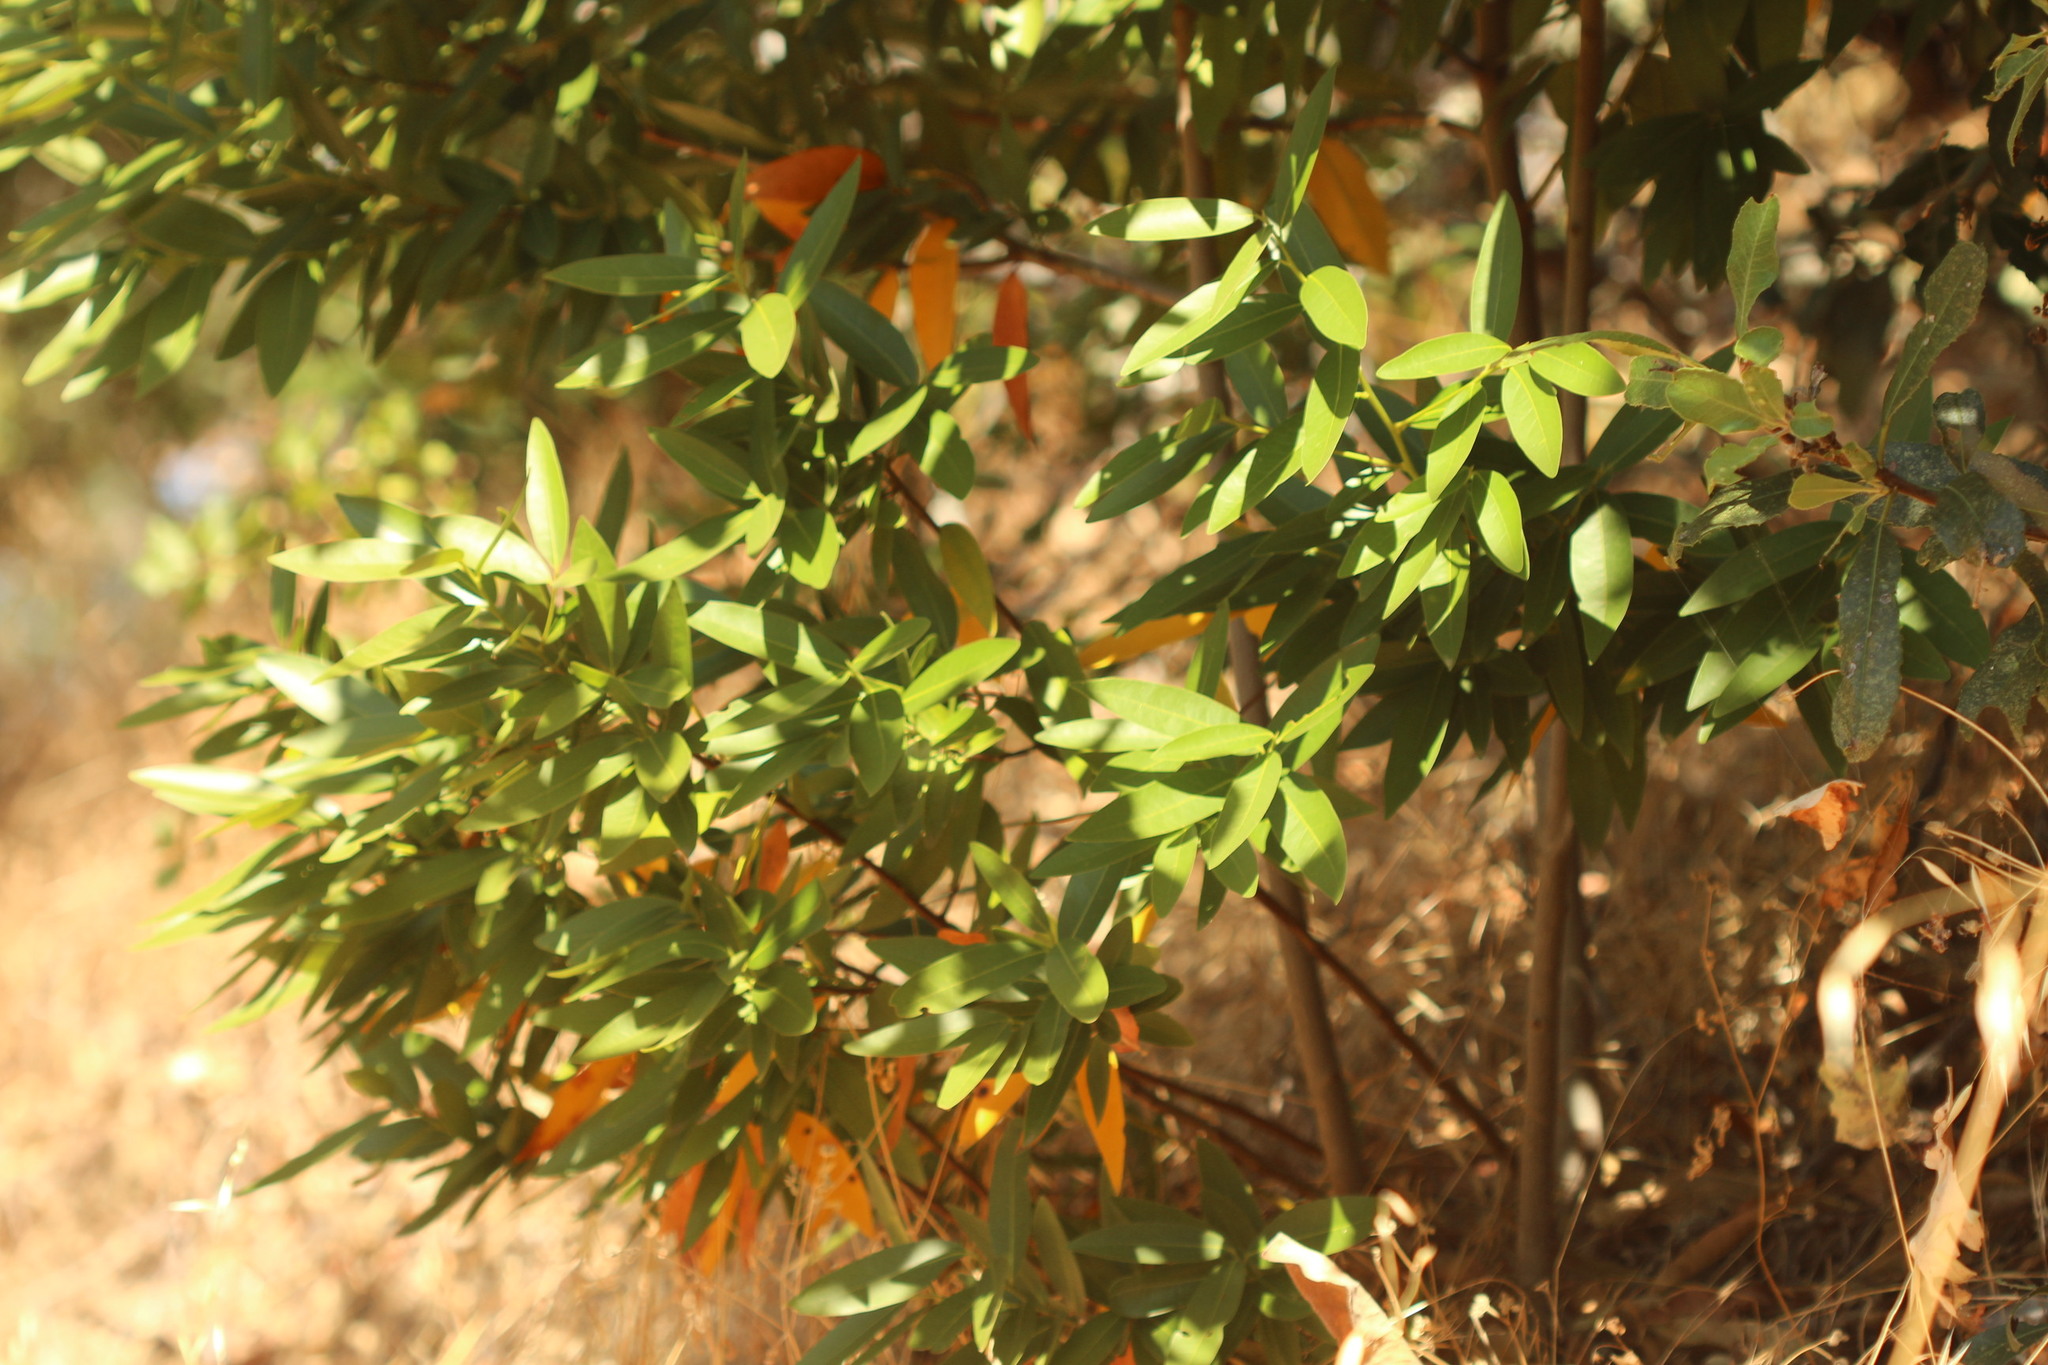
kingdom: Plantae
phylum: Tracheophyta
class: Magnoliopsida
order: Laurales
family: Lauraceae
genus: Umbellularia
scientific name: Umbellularia californica
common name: California bay
